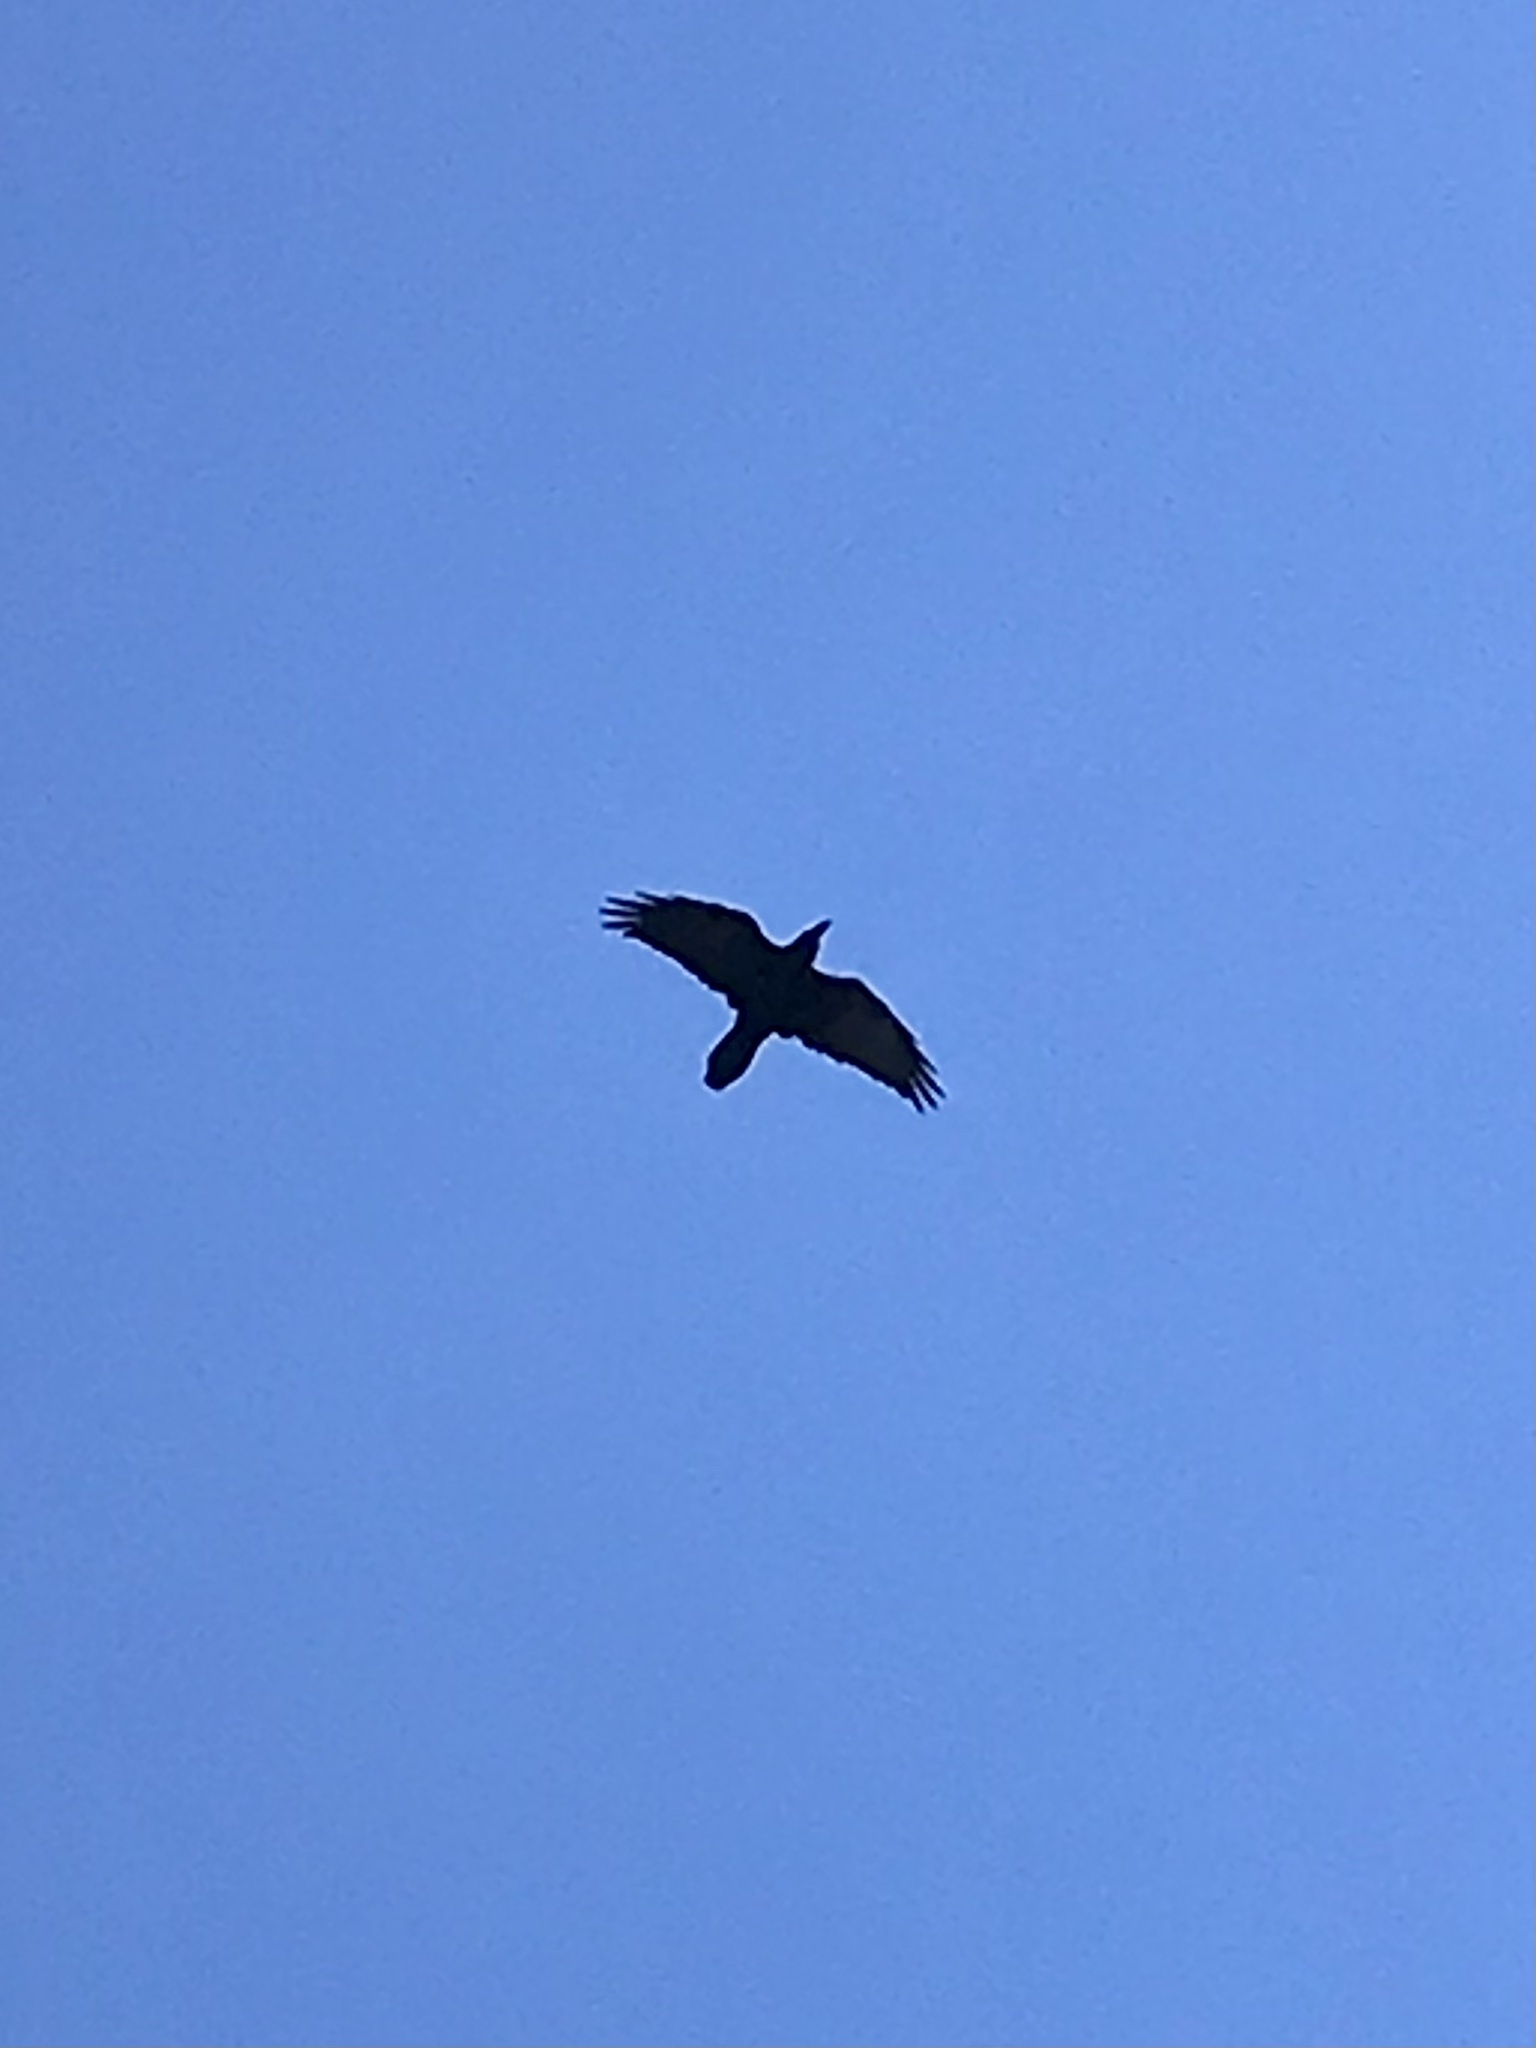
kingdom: Animalia
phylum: Chordata
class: Aves
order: Passeriformes
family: Corvidae
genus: Corvus
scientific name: Corvus corax
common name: Common raven
